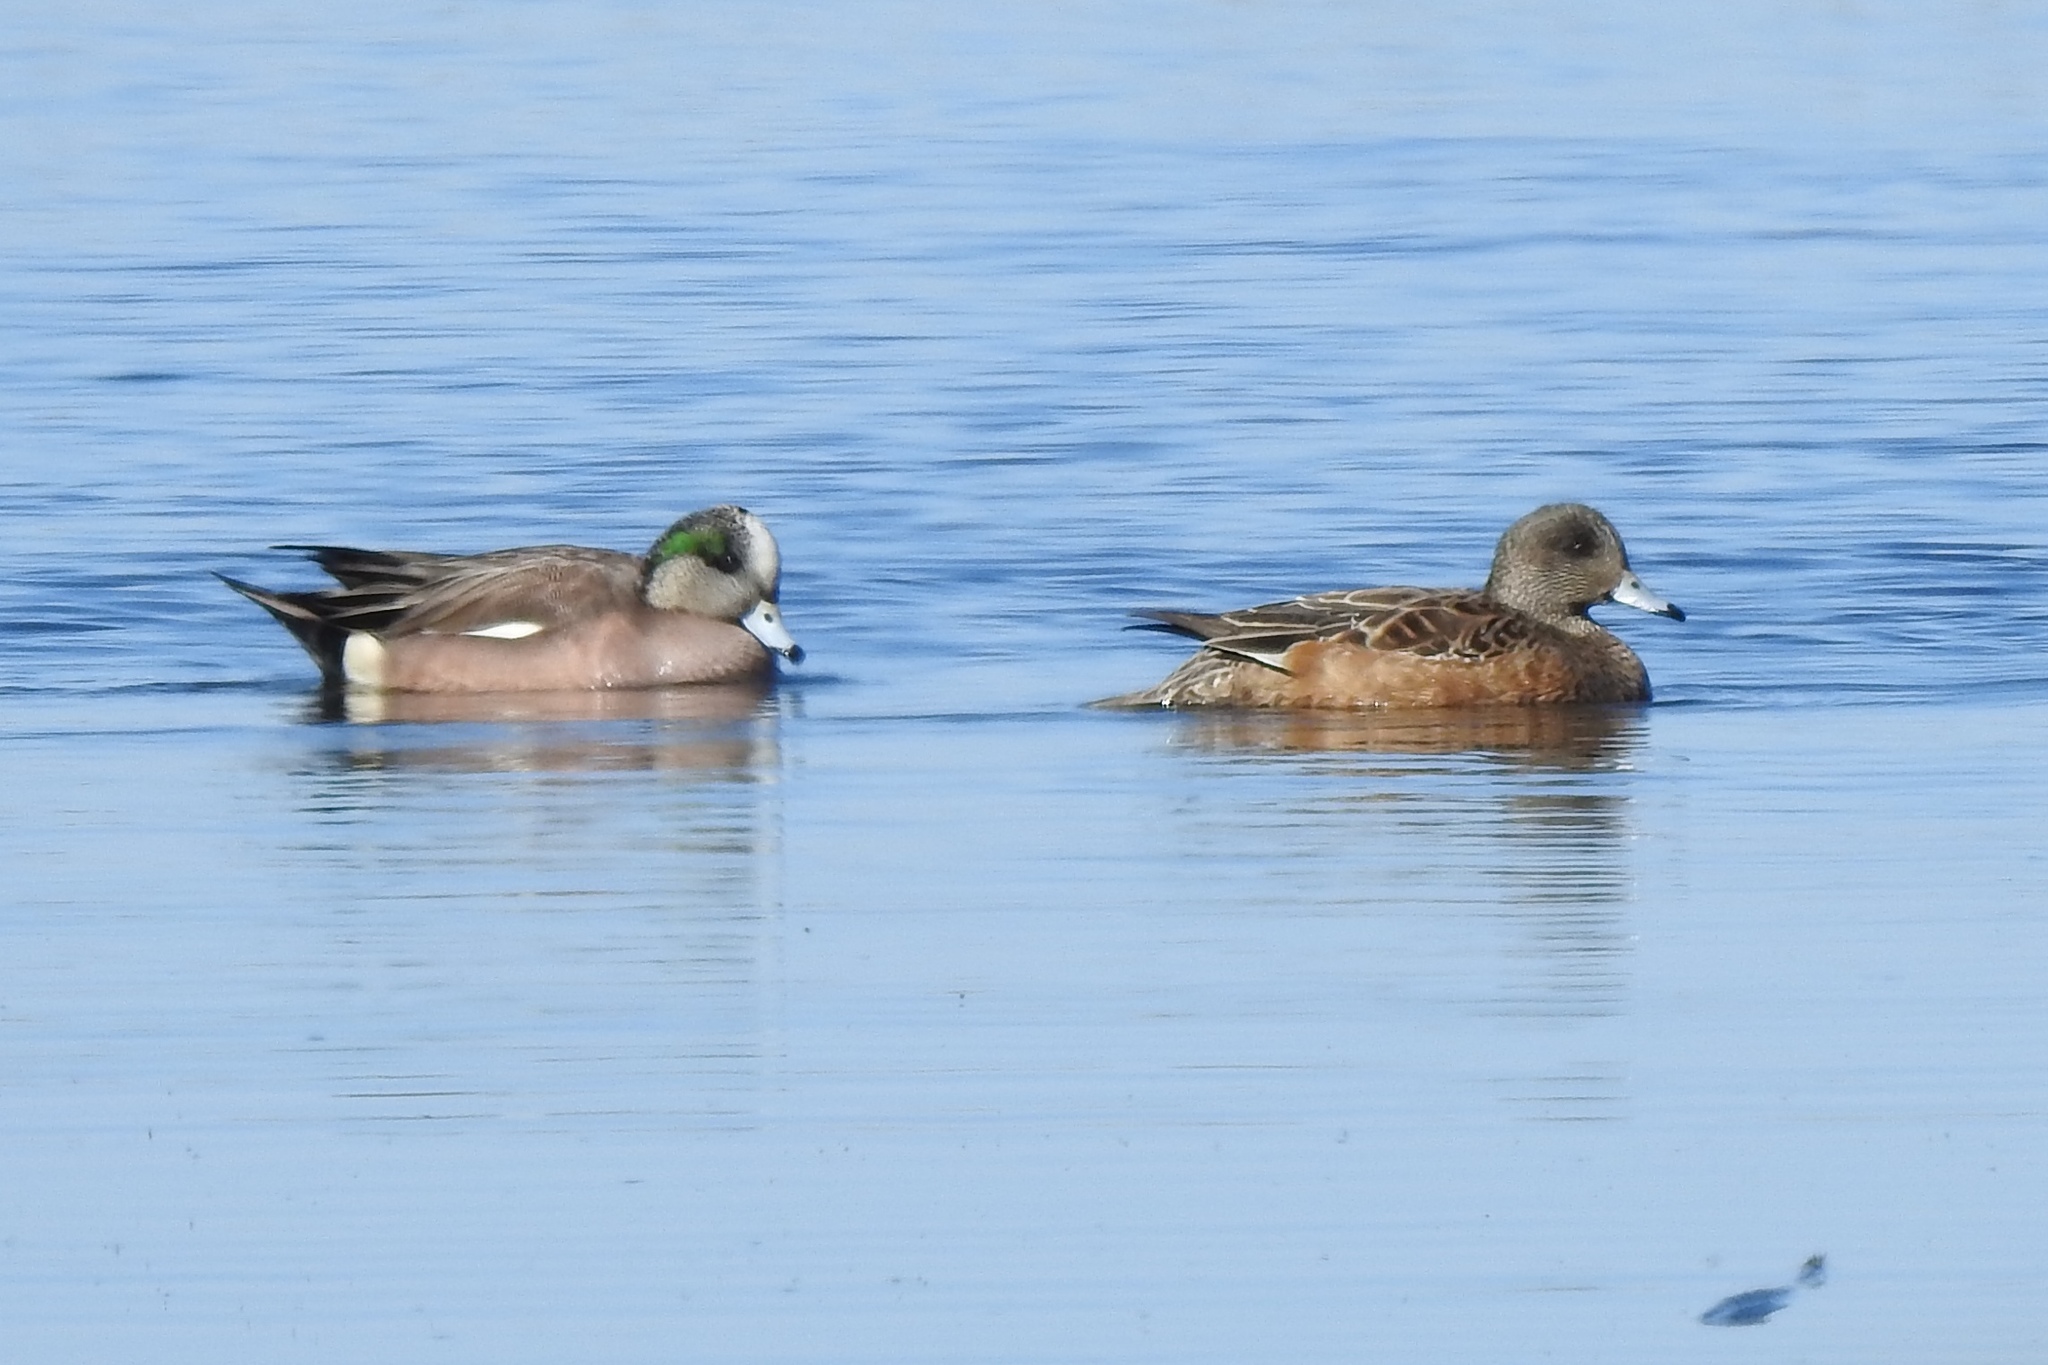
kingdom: Animalia
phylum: Chordata
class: Aves
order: Anseriformes
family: Anatidae
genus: Mareca
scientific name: Mareca americana
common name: American wigeon
